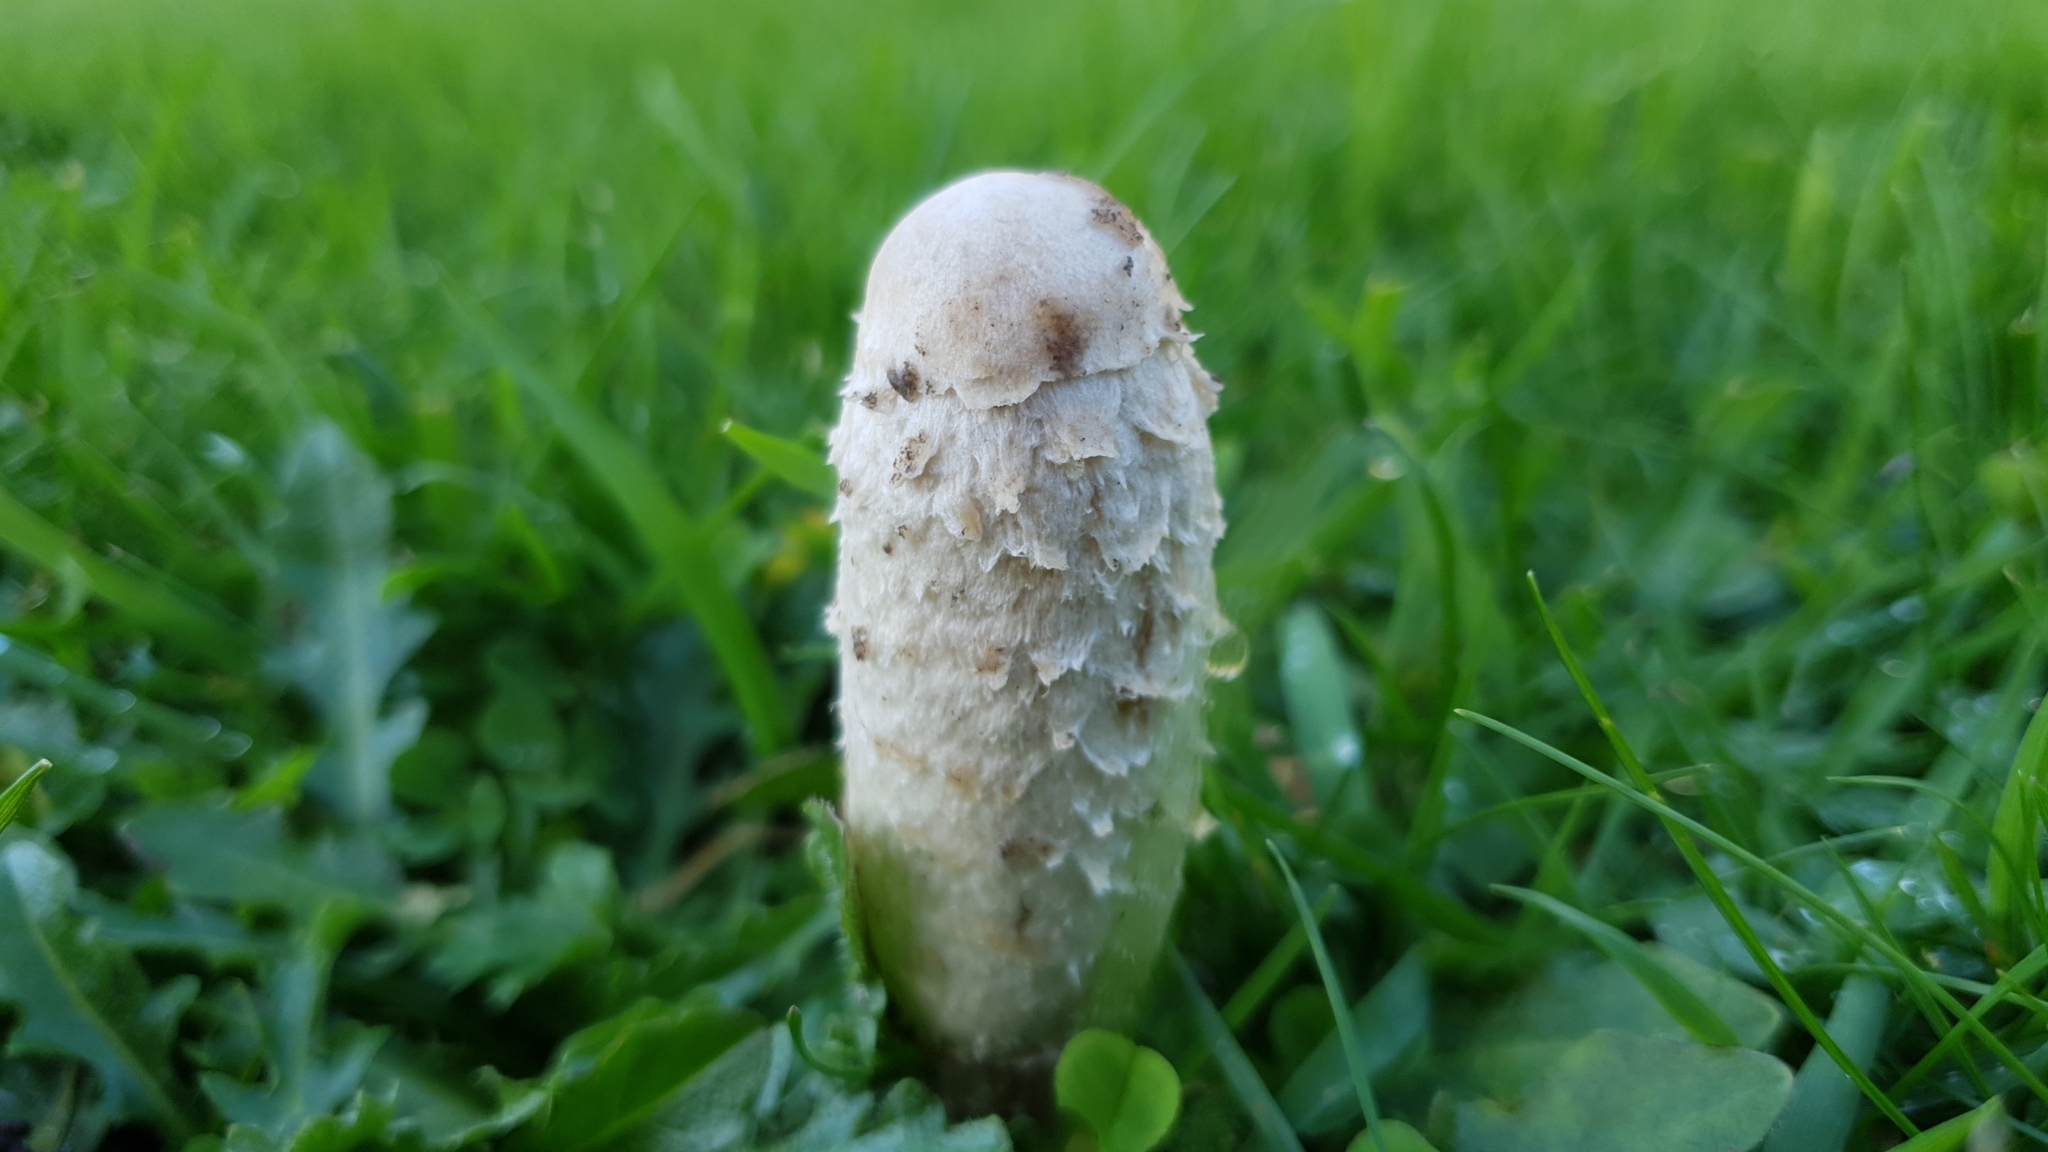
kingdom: Fungi
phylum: Basidiomycota
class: Agaricomycetes
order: Agaricales
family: Agaricaceae
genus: Coprinus
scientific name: Coprinus comatus
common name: Lawyer's wig
